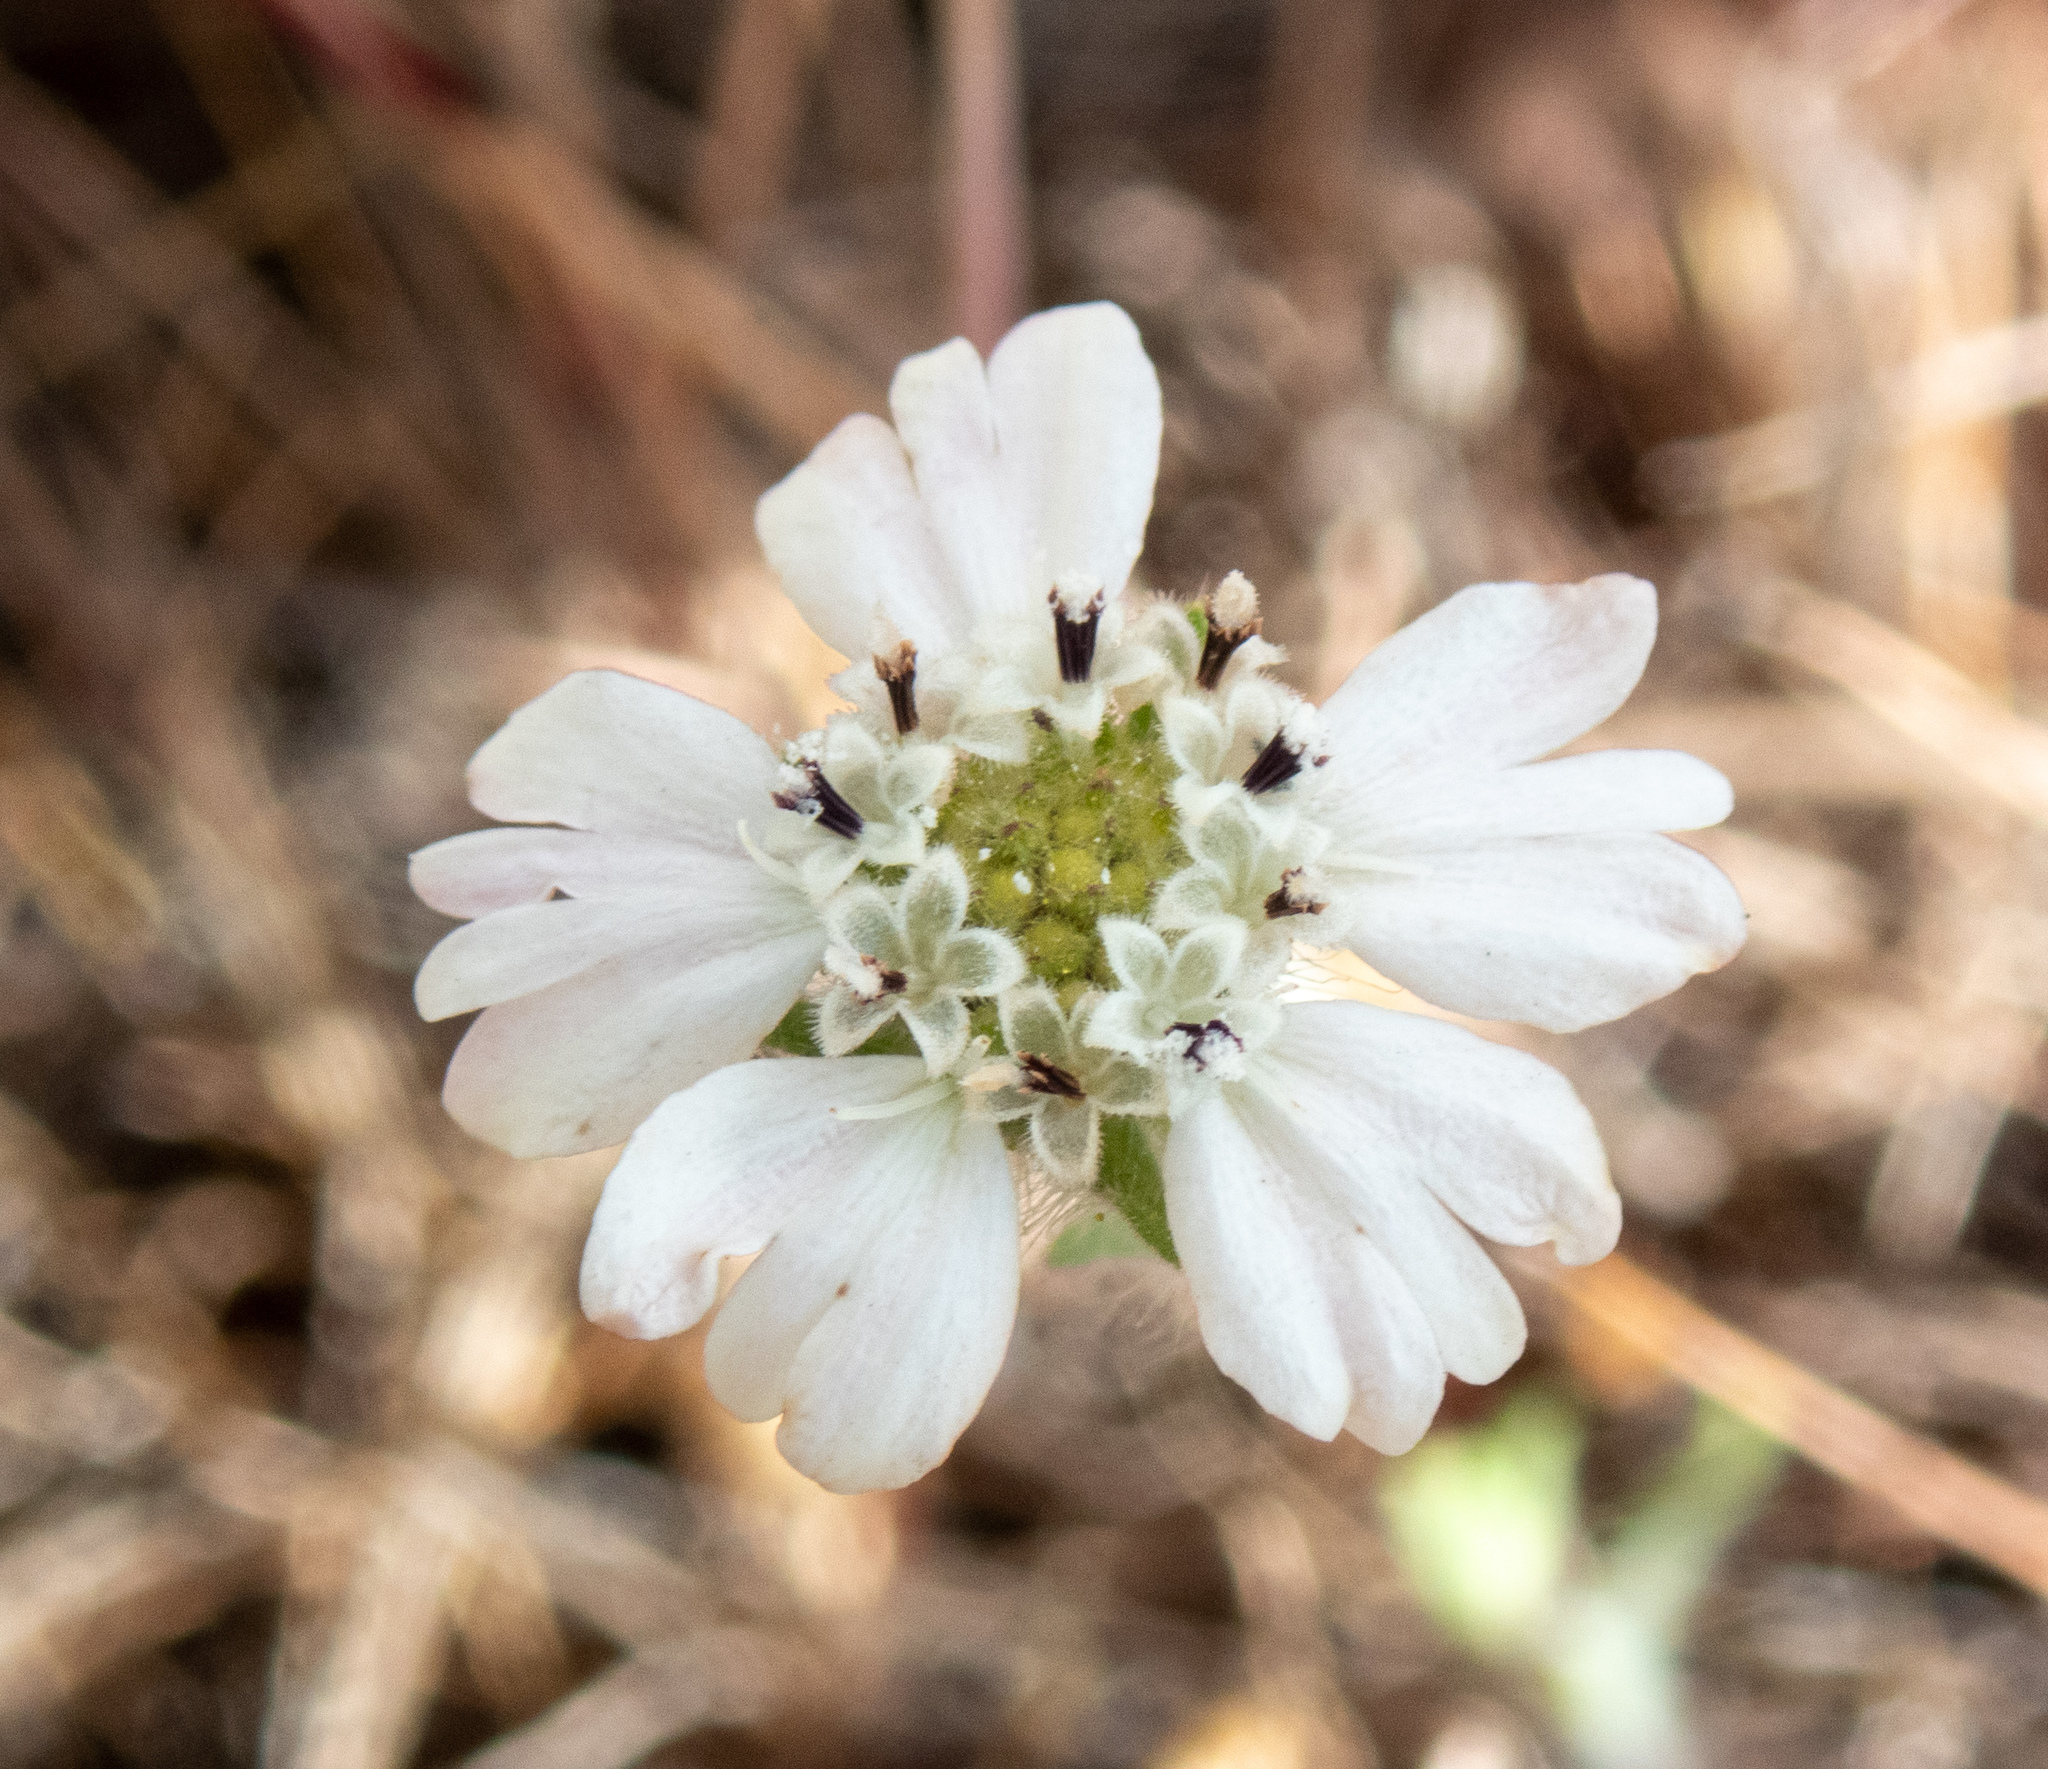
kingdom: Plantae
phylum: Tracheophyta
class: Magnoliopsida
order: Asterales
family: Asteraceae
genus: Hemizonia
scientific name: Hemizonia congesta
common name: Hayfield tarweed
